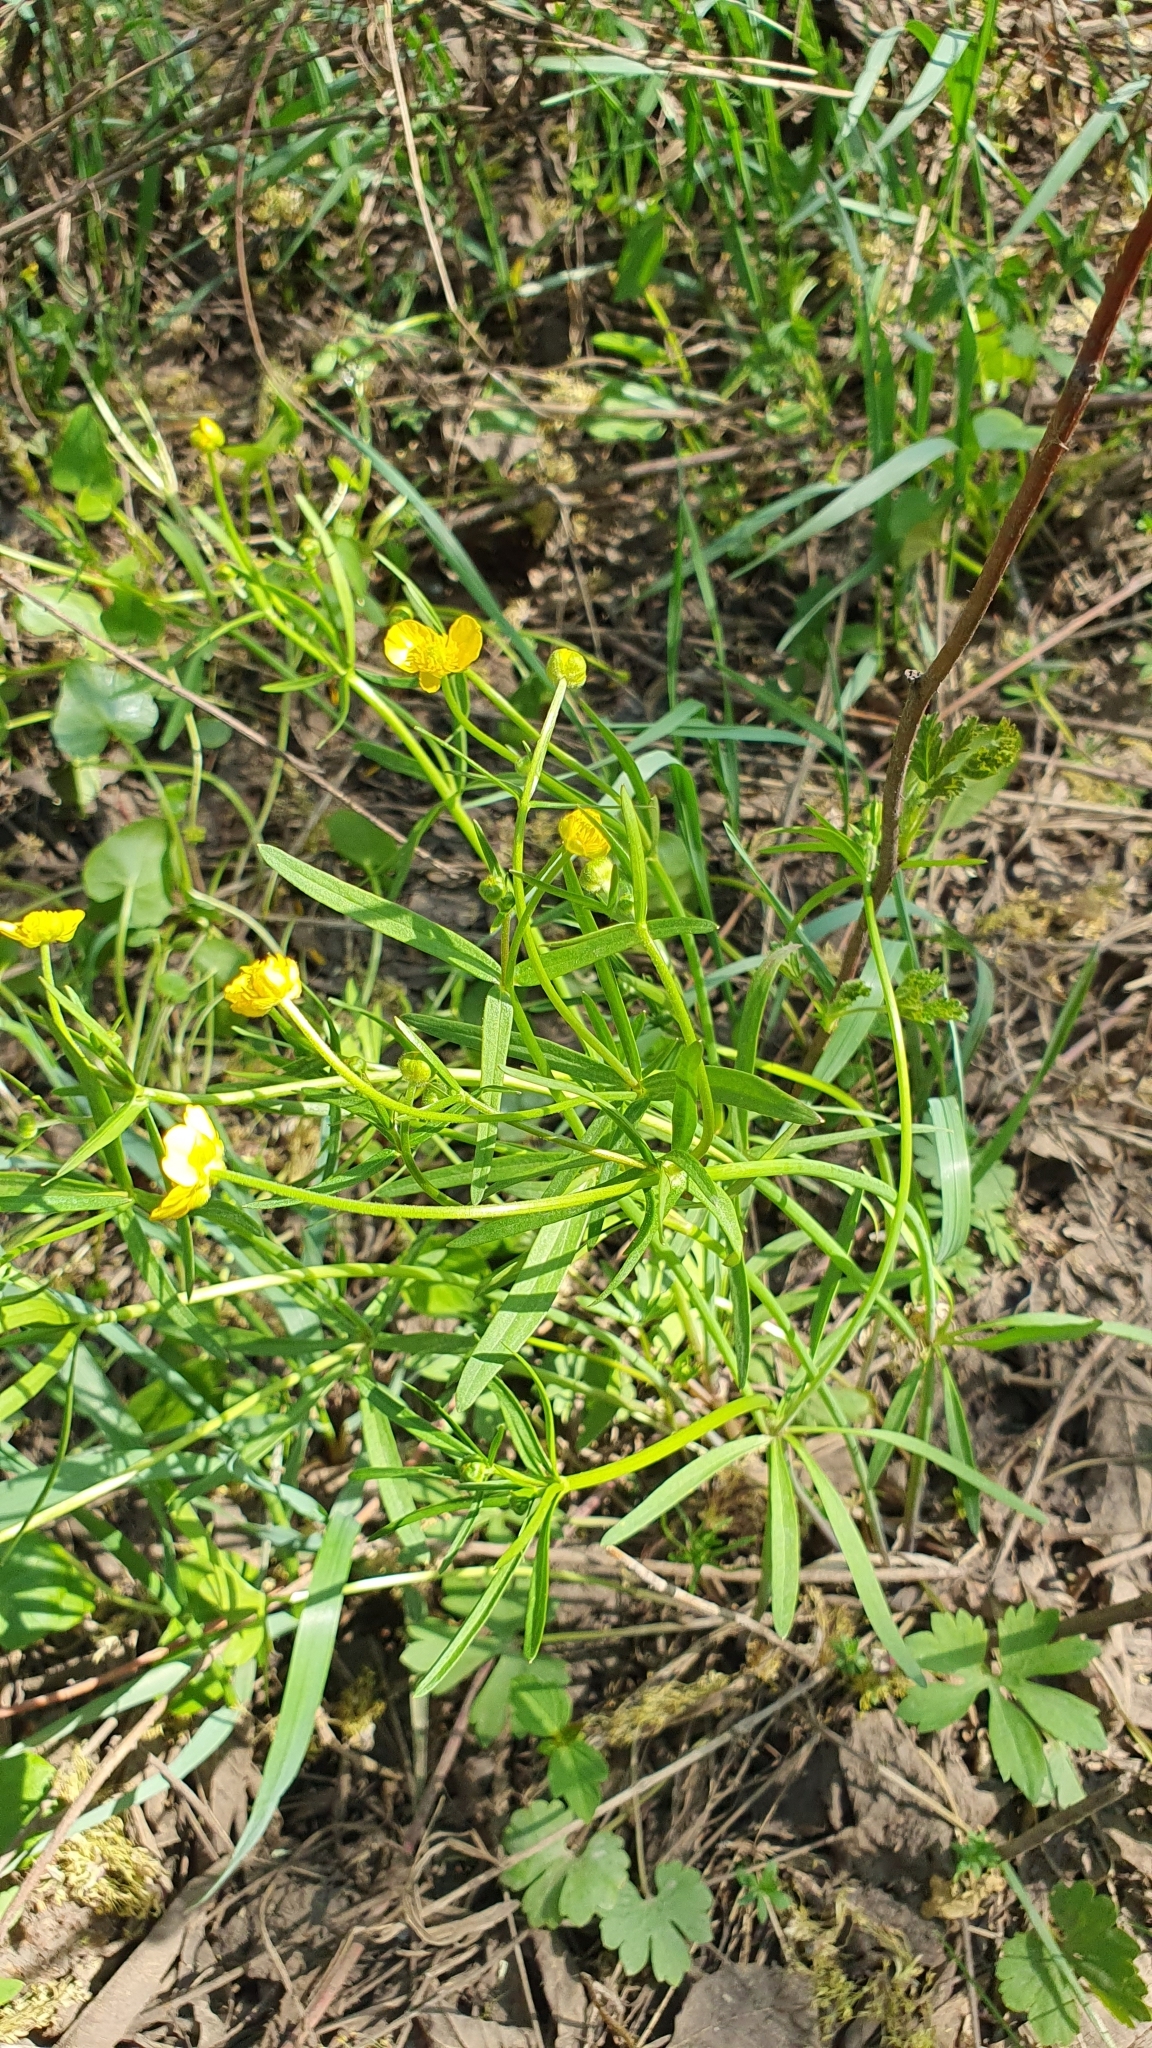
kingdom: Plantae
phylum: Tracheophyta
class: Magnoliopsida
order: Ranunculales
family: Ranunculaceae
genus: Ranunculus
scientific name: Ranunculus auricomus
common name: Goldilocks buttercup
